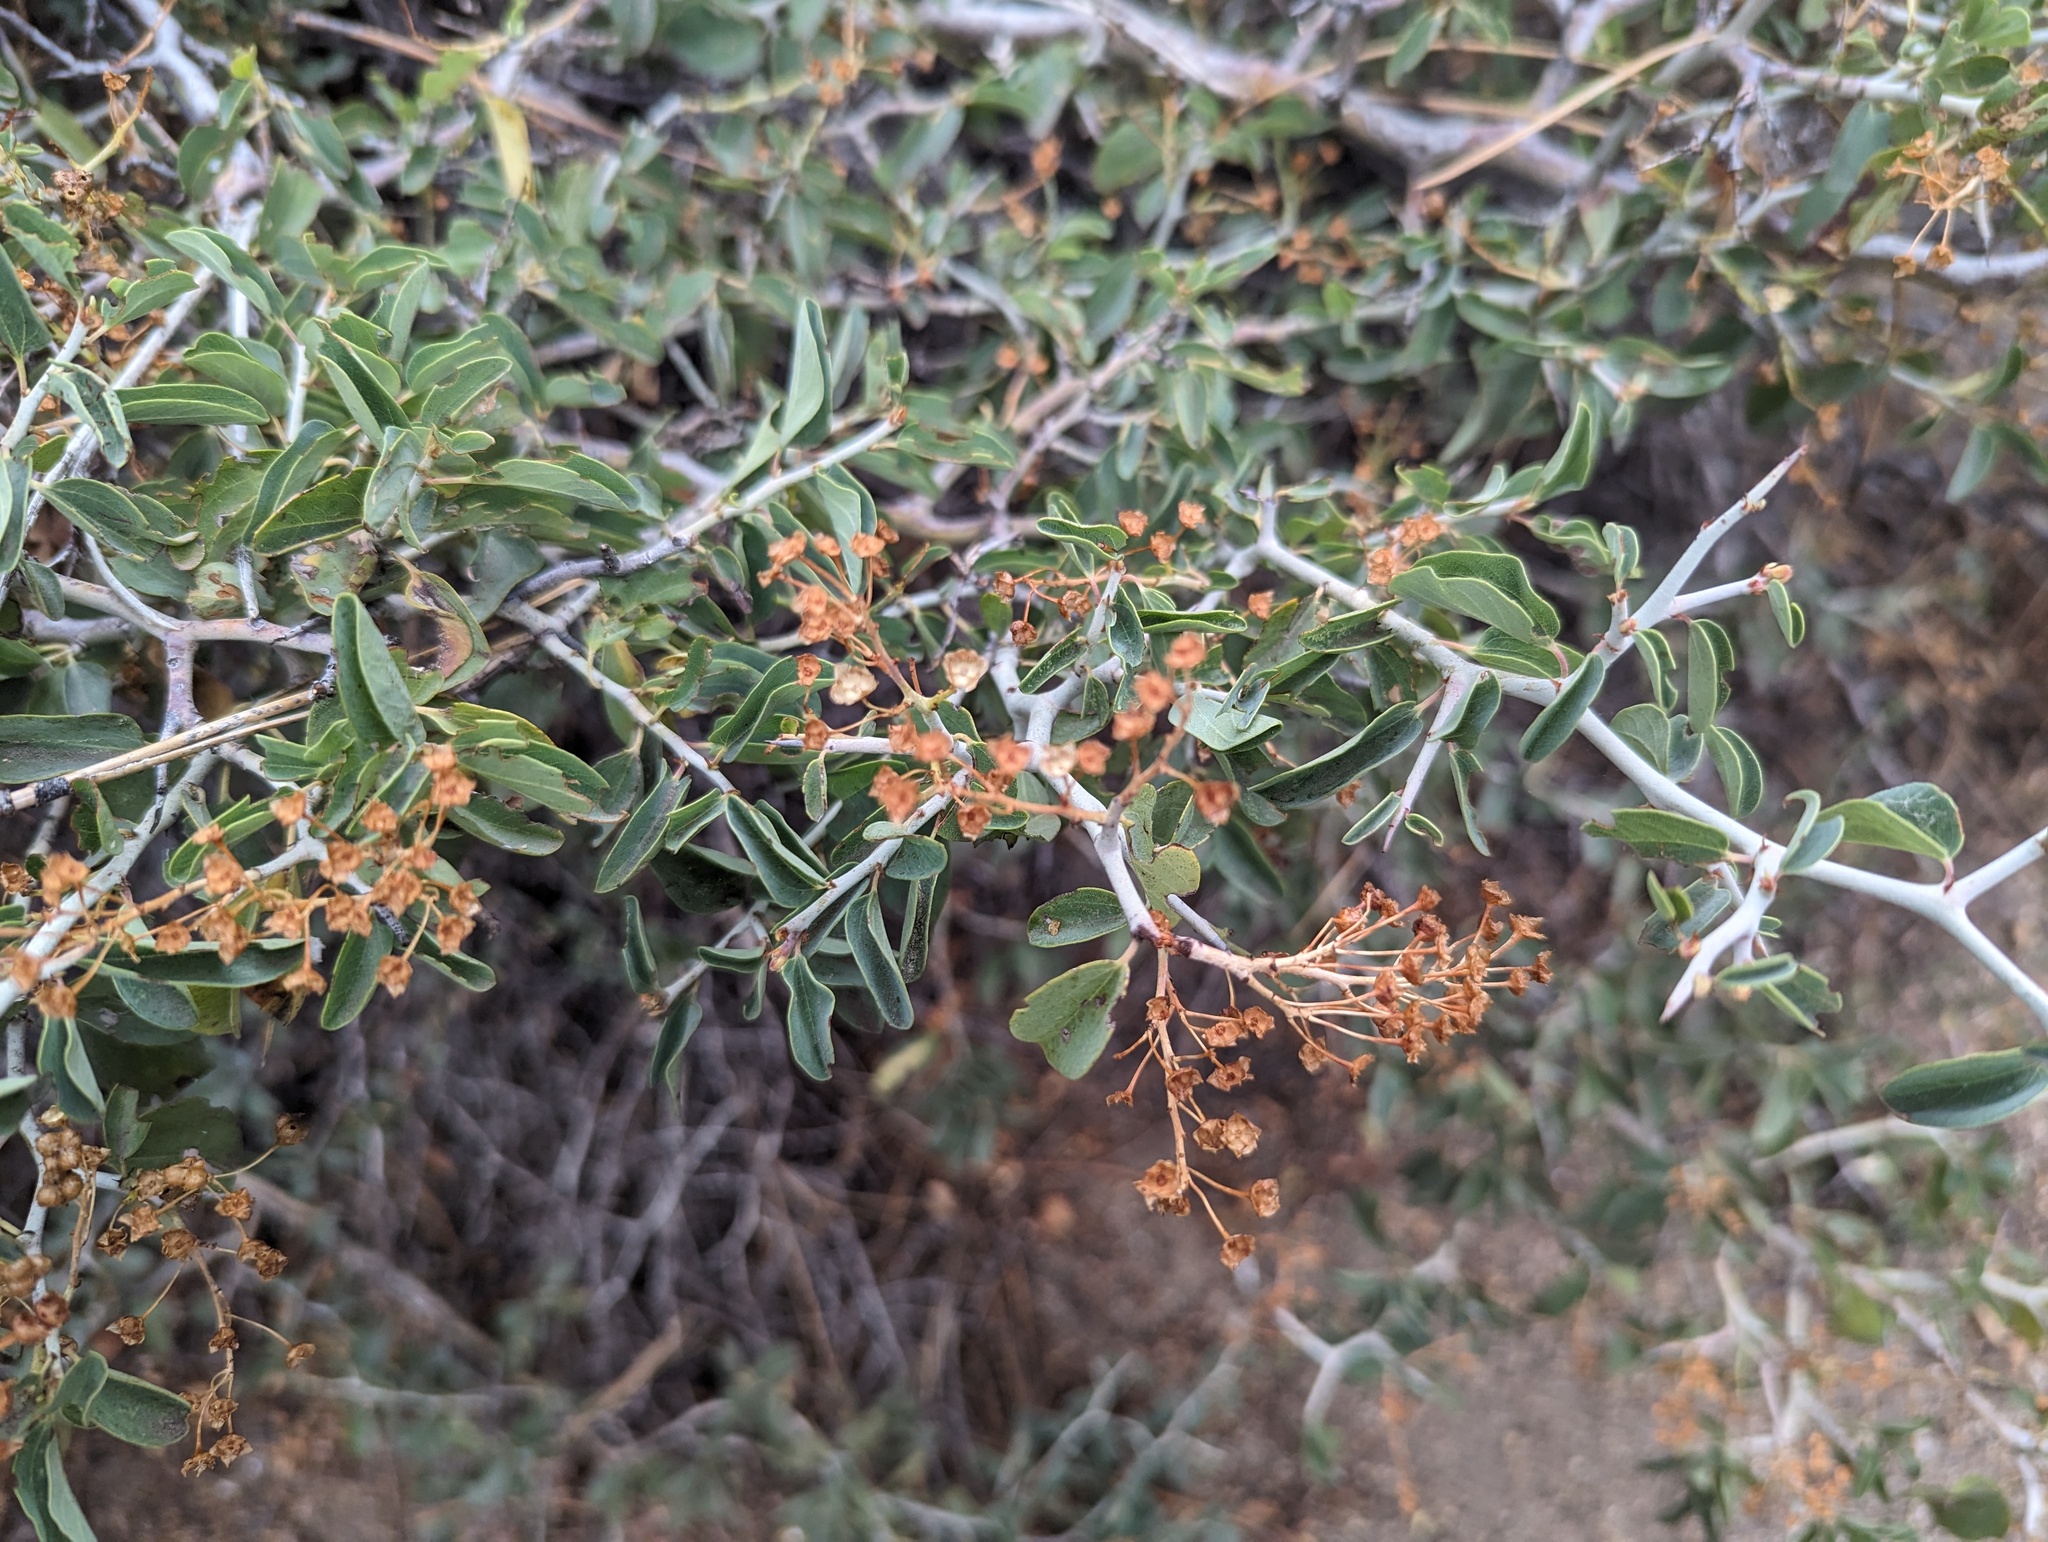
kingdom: Plantae
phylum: Tracheophyta
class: Magnoliopsida
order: Rosales
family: Rhamnaceae
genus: Ceanothus
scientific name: Ceanothus cordulatus
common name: Mountain whitethorn
